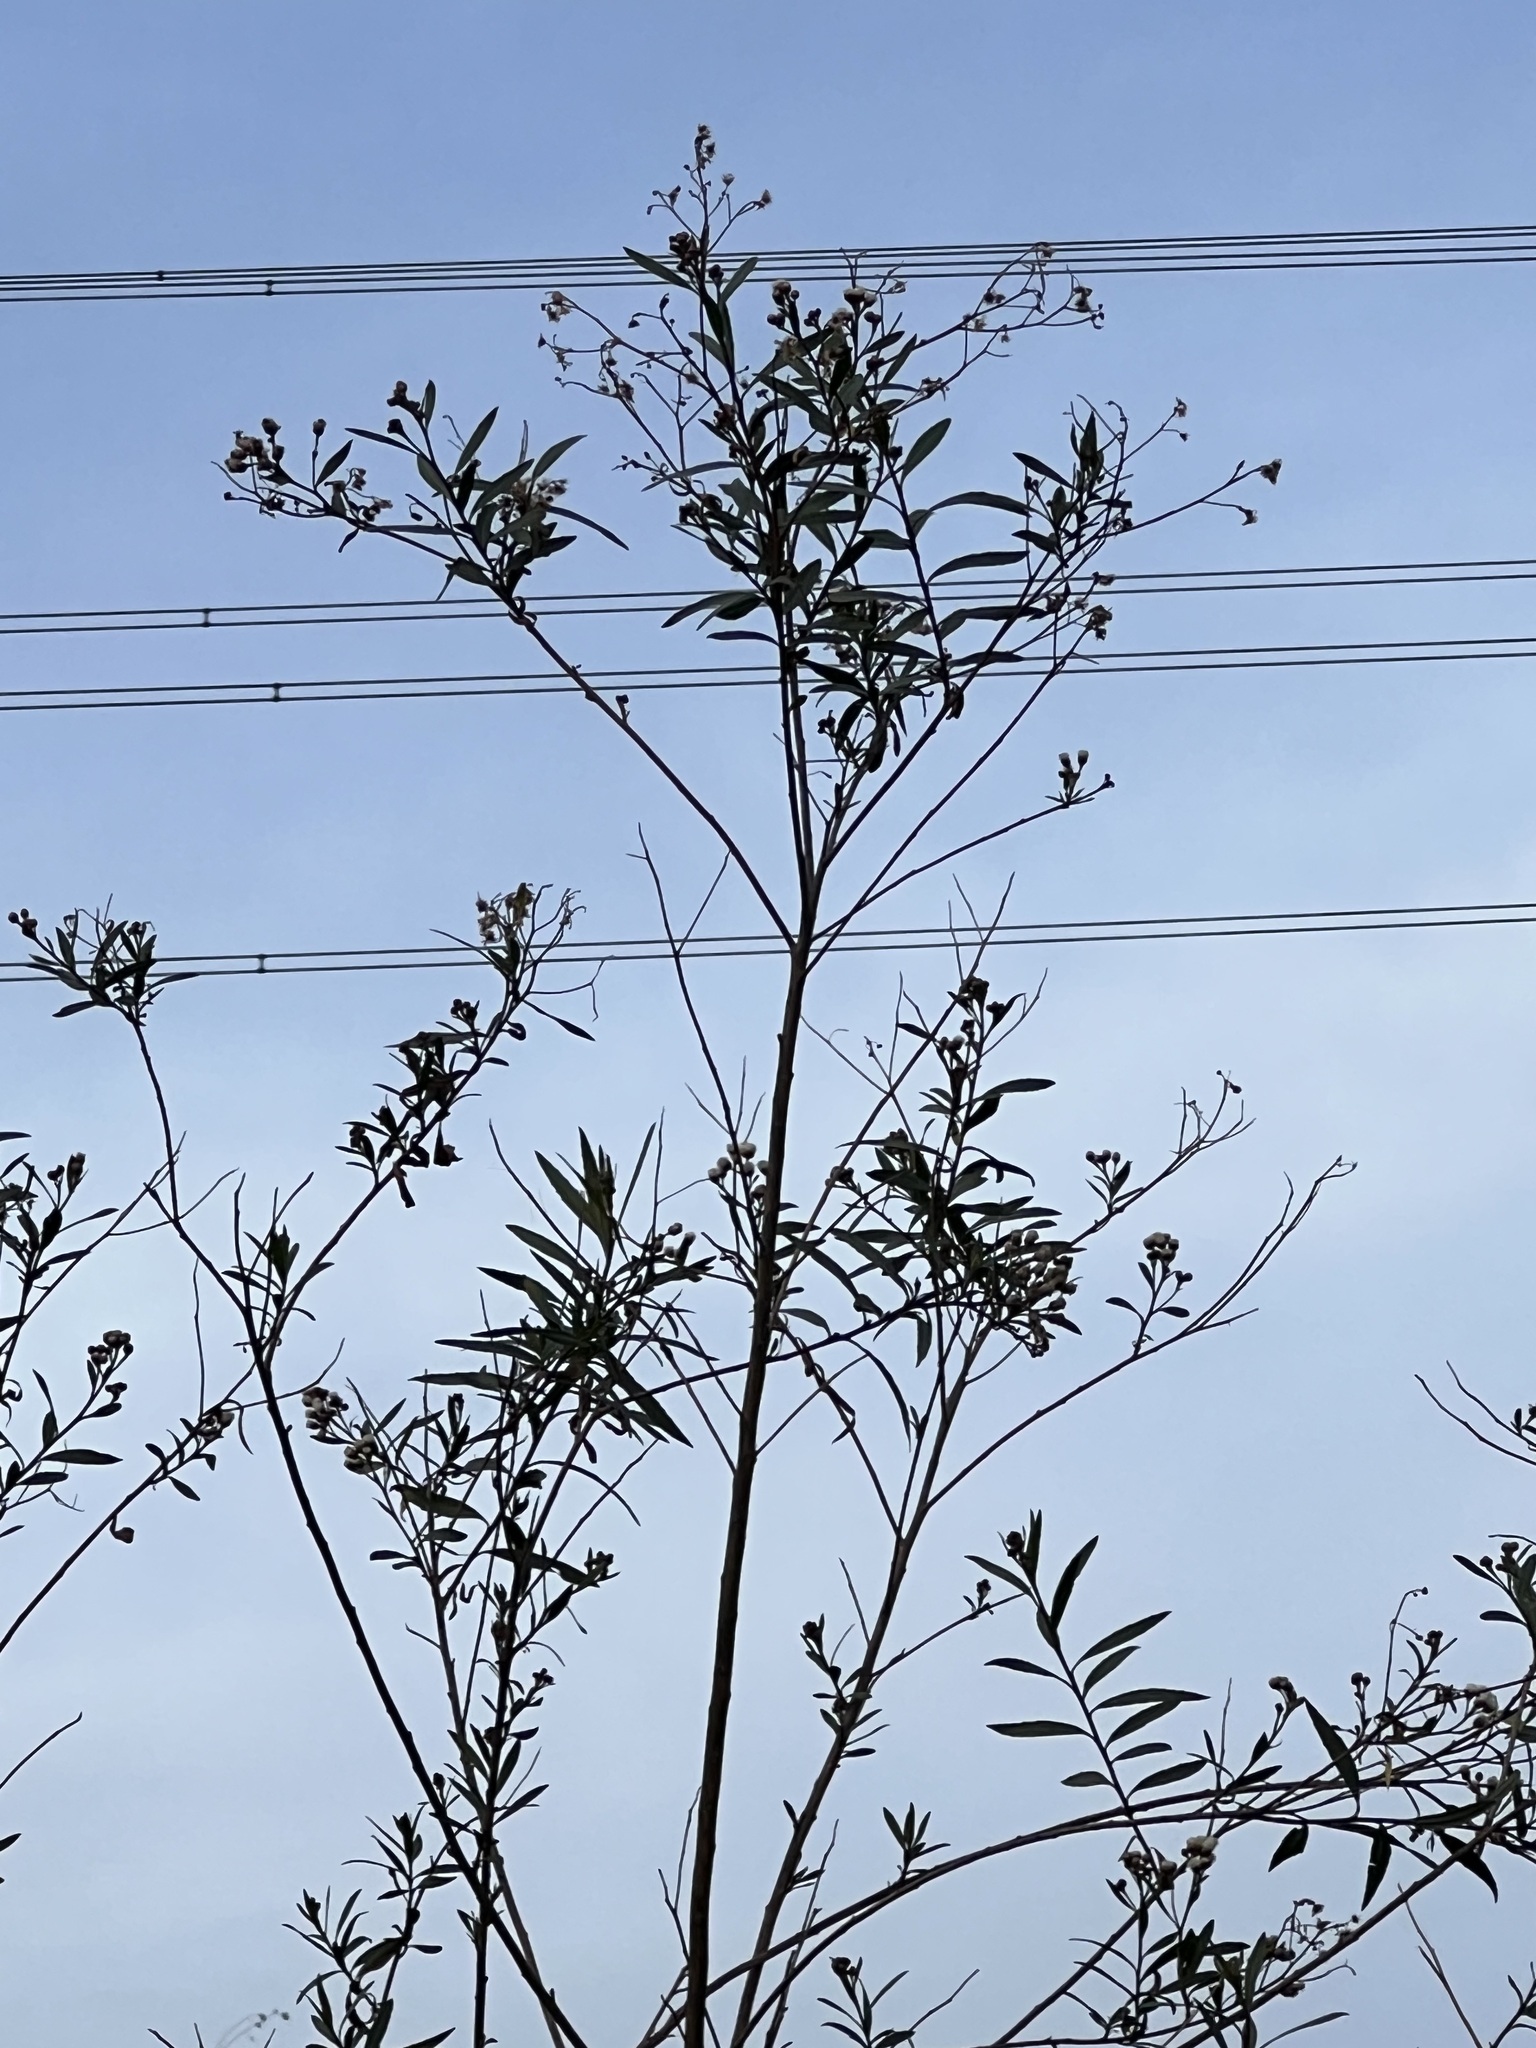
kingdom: Plantae
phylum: Tracheophyta
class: Magnoliopsida
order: Asterales
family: Asteraceae
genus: Baccharis
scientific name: Baccharis salicifolia
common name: Sticky baccharis
